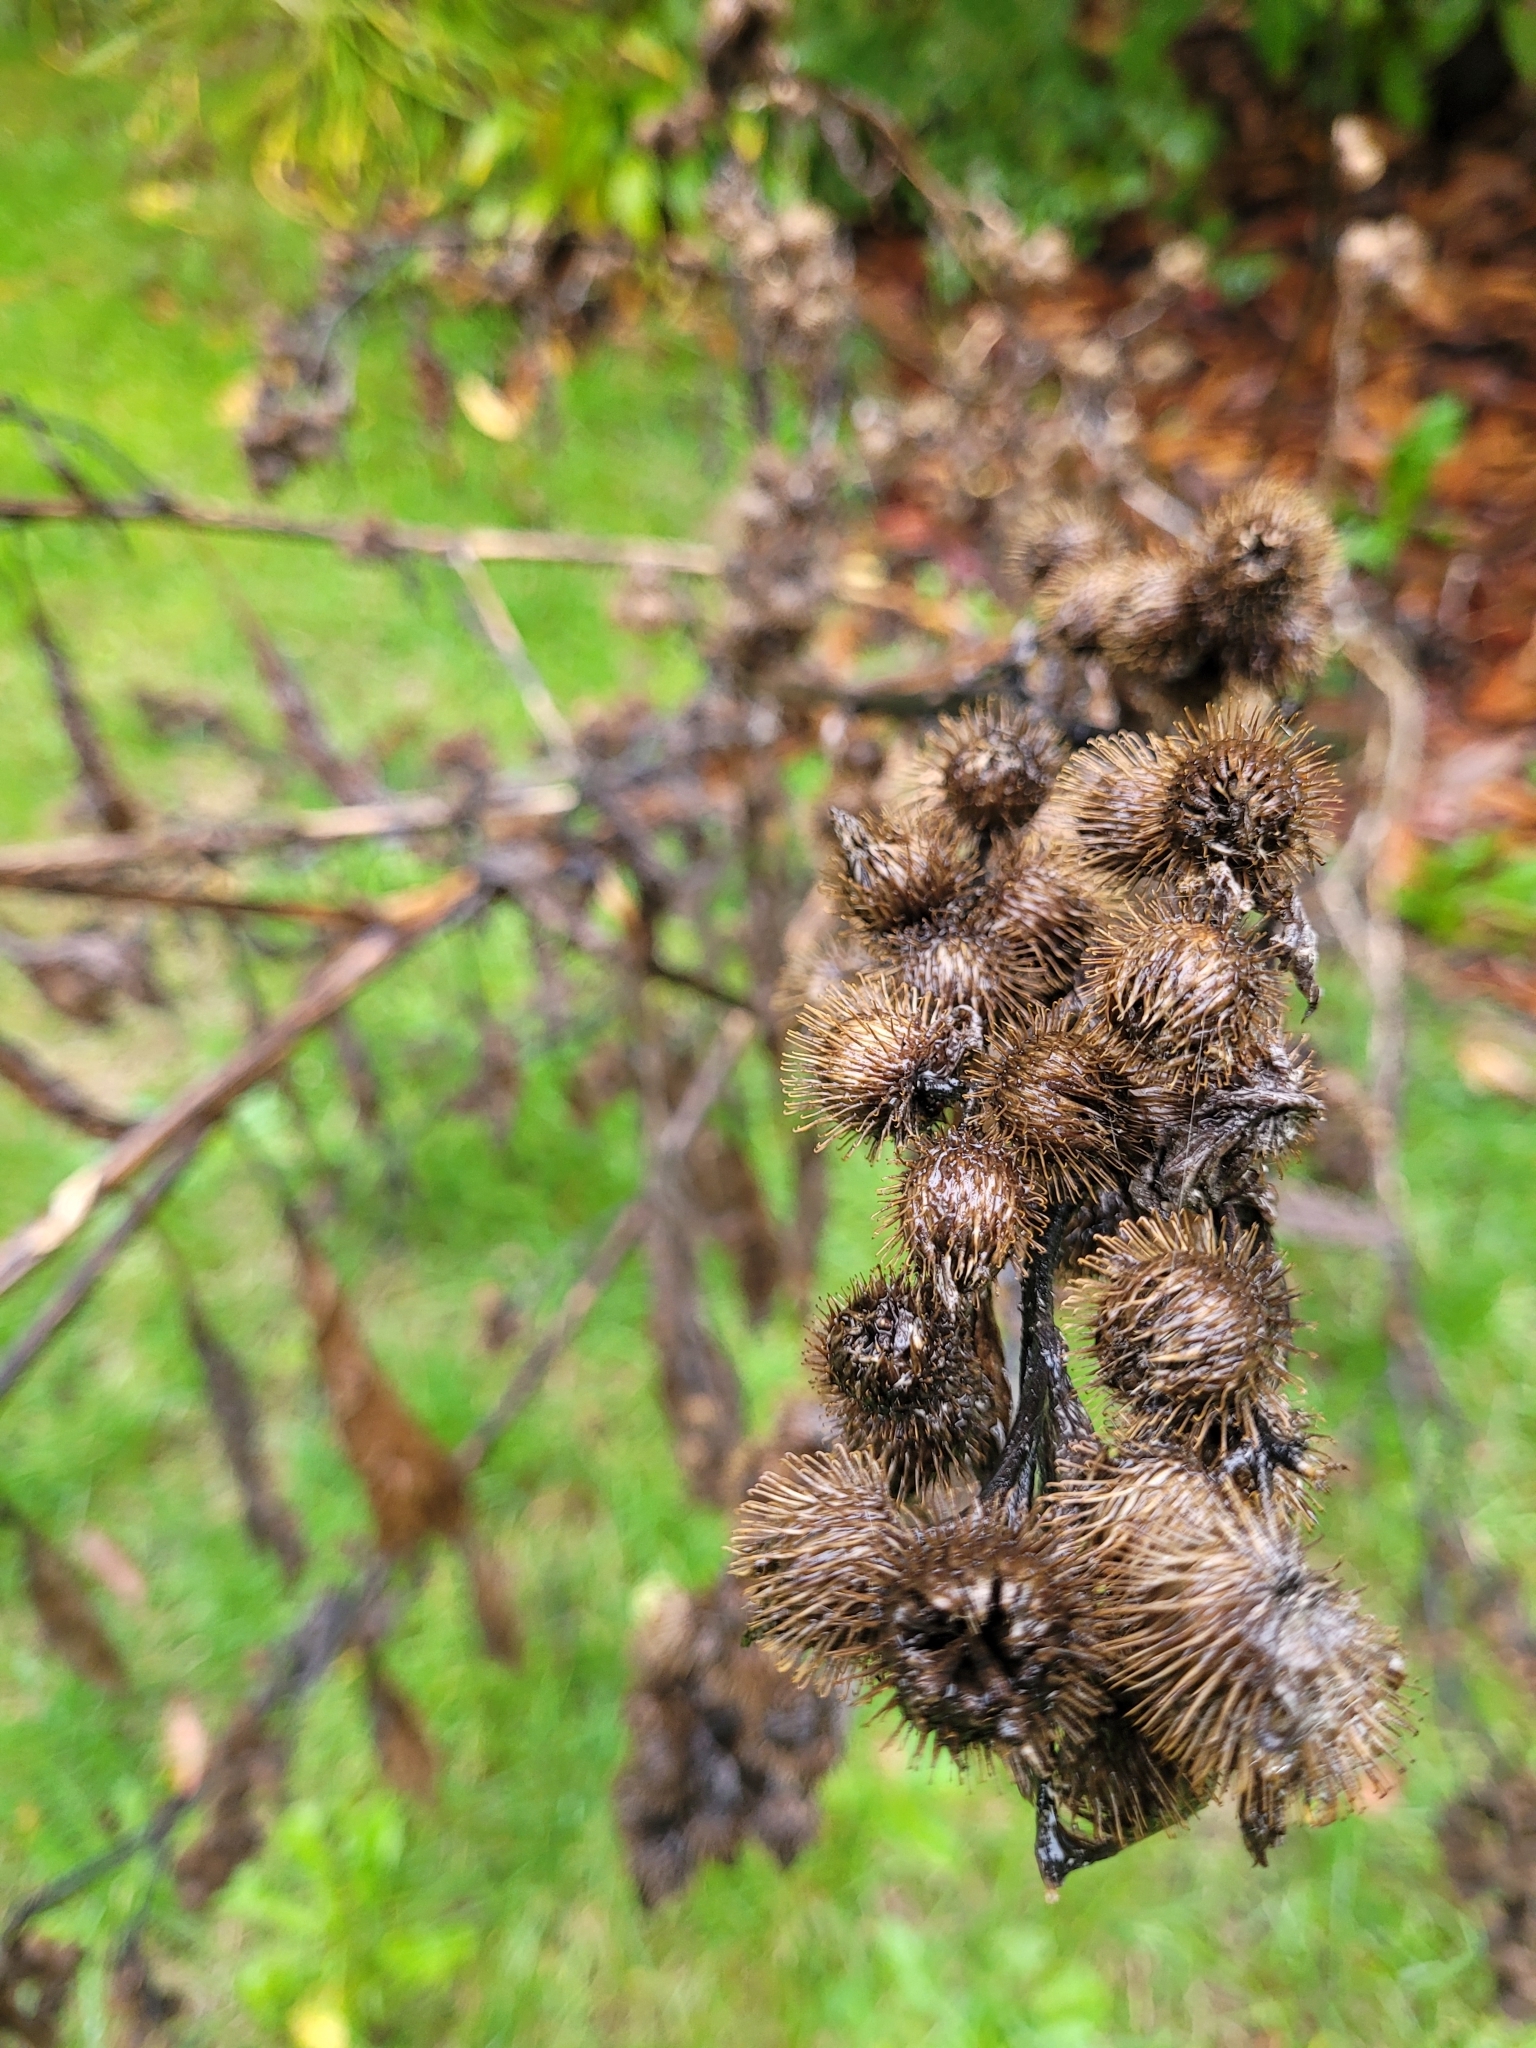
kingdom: Plantae
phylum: Tracheophyta
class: Magnoliopsida
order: Asterales
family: Asteraceae
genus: Arctium
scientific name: Arctium minus
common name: Lesser burdock
